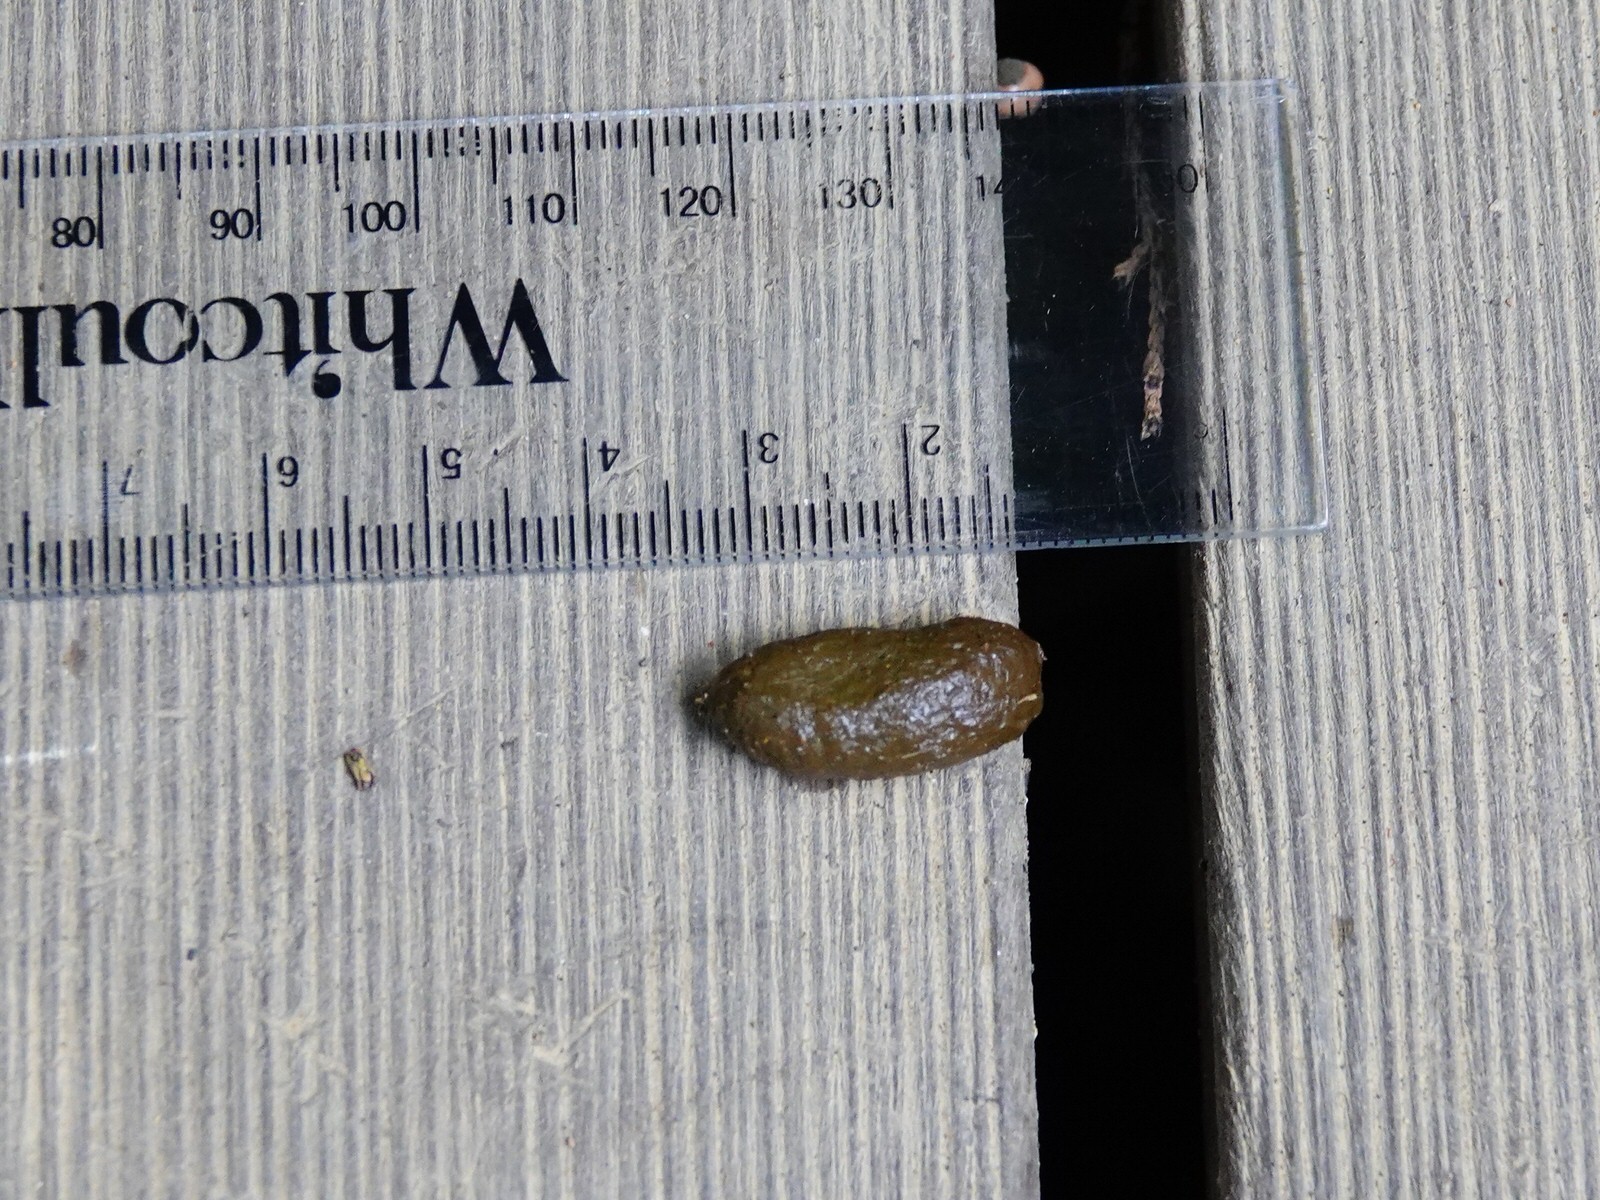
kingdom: Animalia
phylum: Chordata
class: Mammalia
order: Diprotodontia
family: Phalangeridae
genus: Trichosurus
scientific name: Trichosurus vulpecula
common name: Common brushtail
